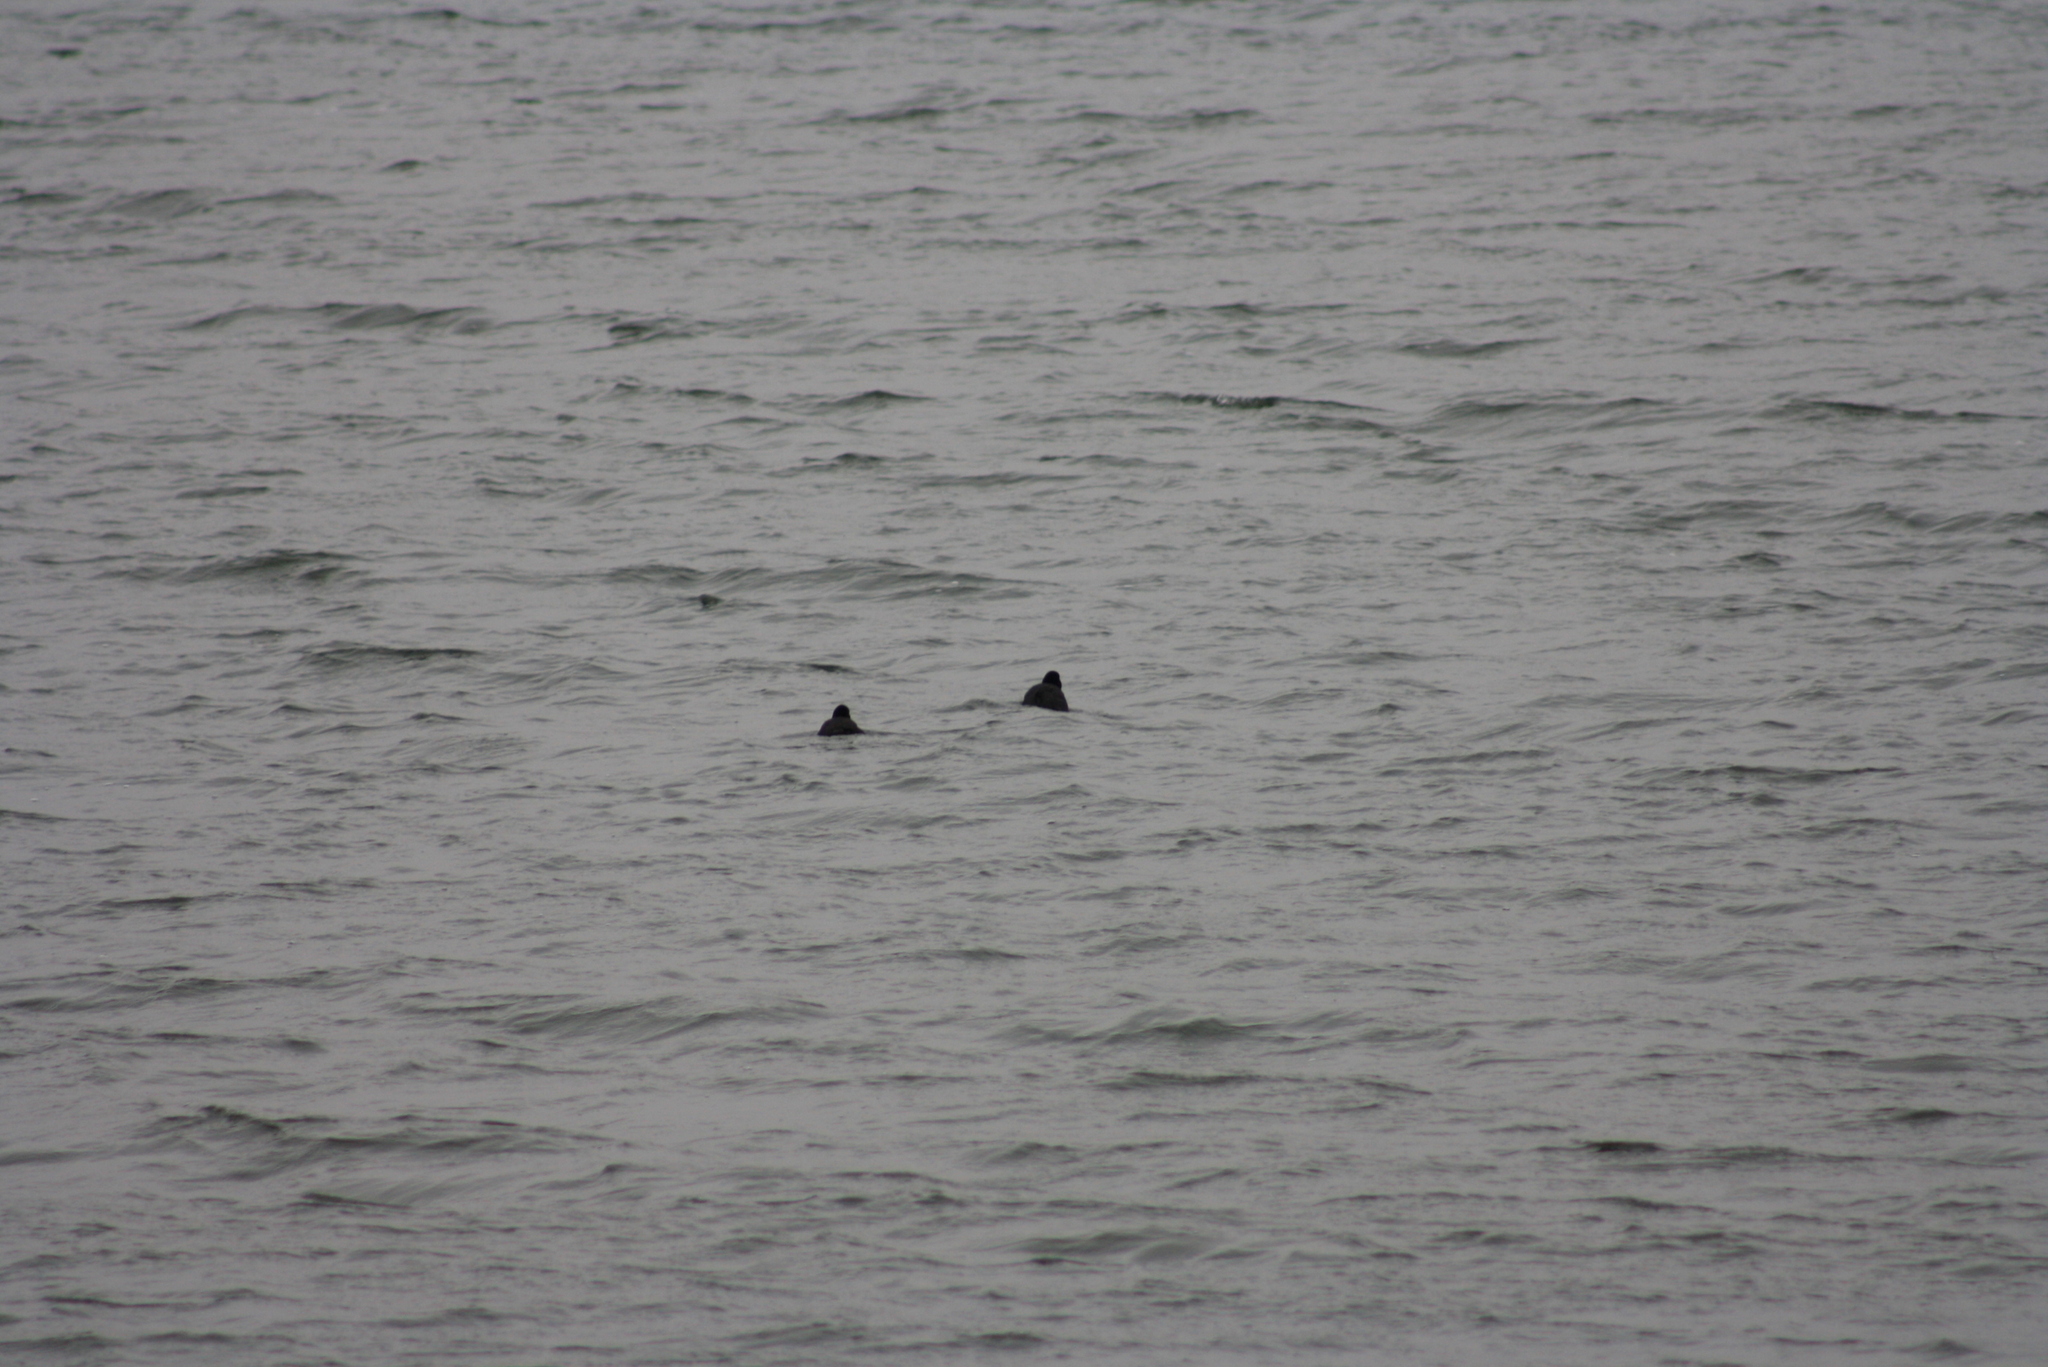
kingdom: Animalia
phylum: Chordata
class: Aves
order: Gruiformes
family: Rallidae
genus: Fulica
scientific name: Fulica atra
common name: Eurasian coot
